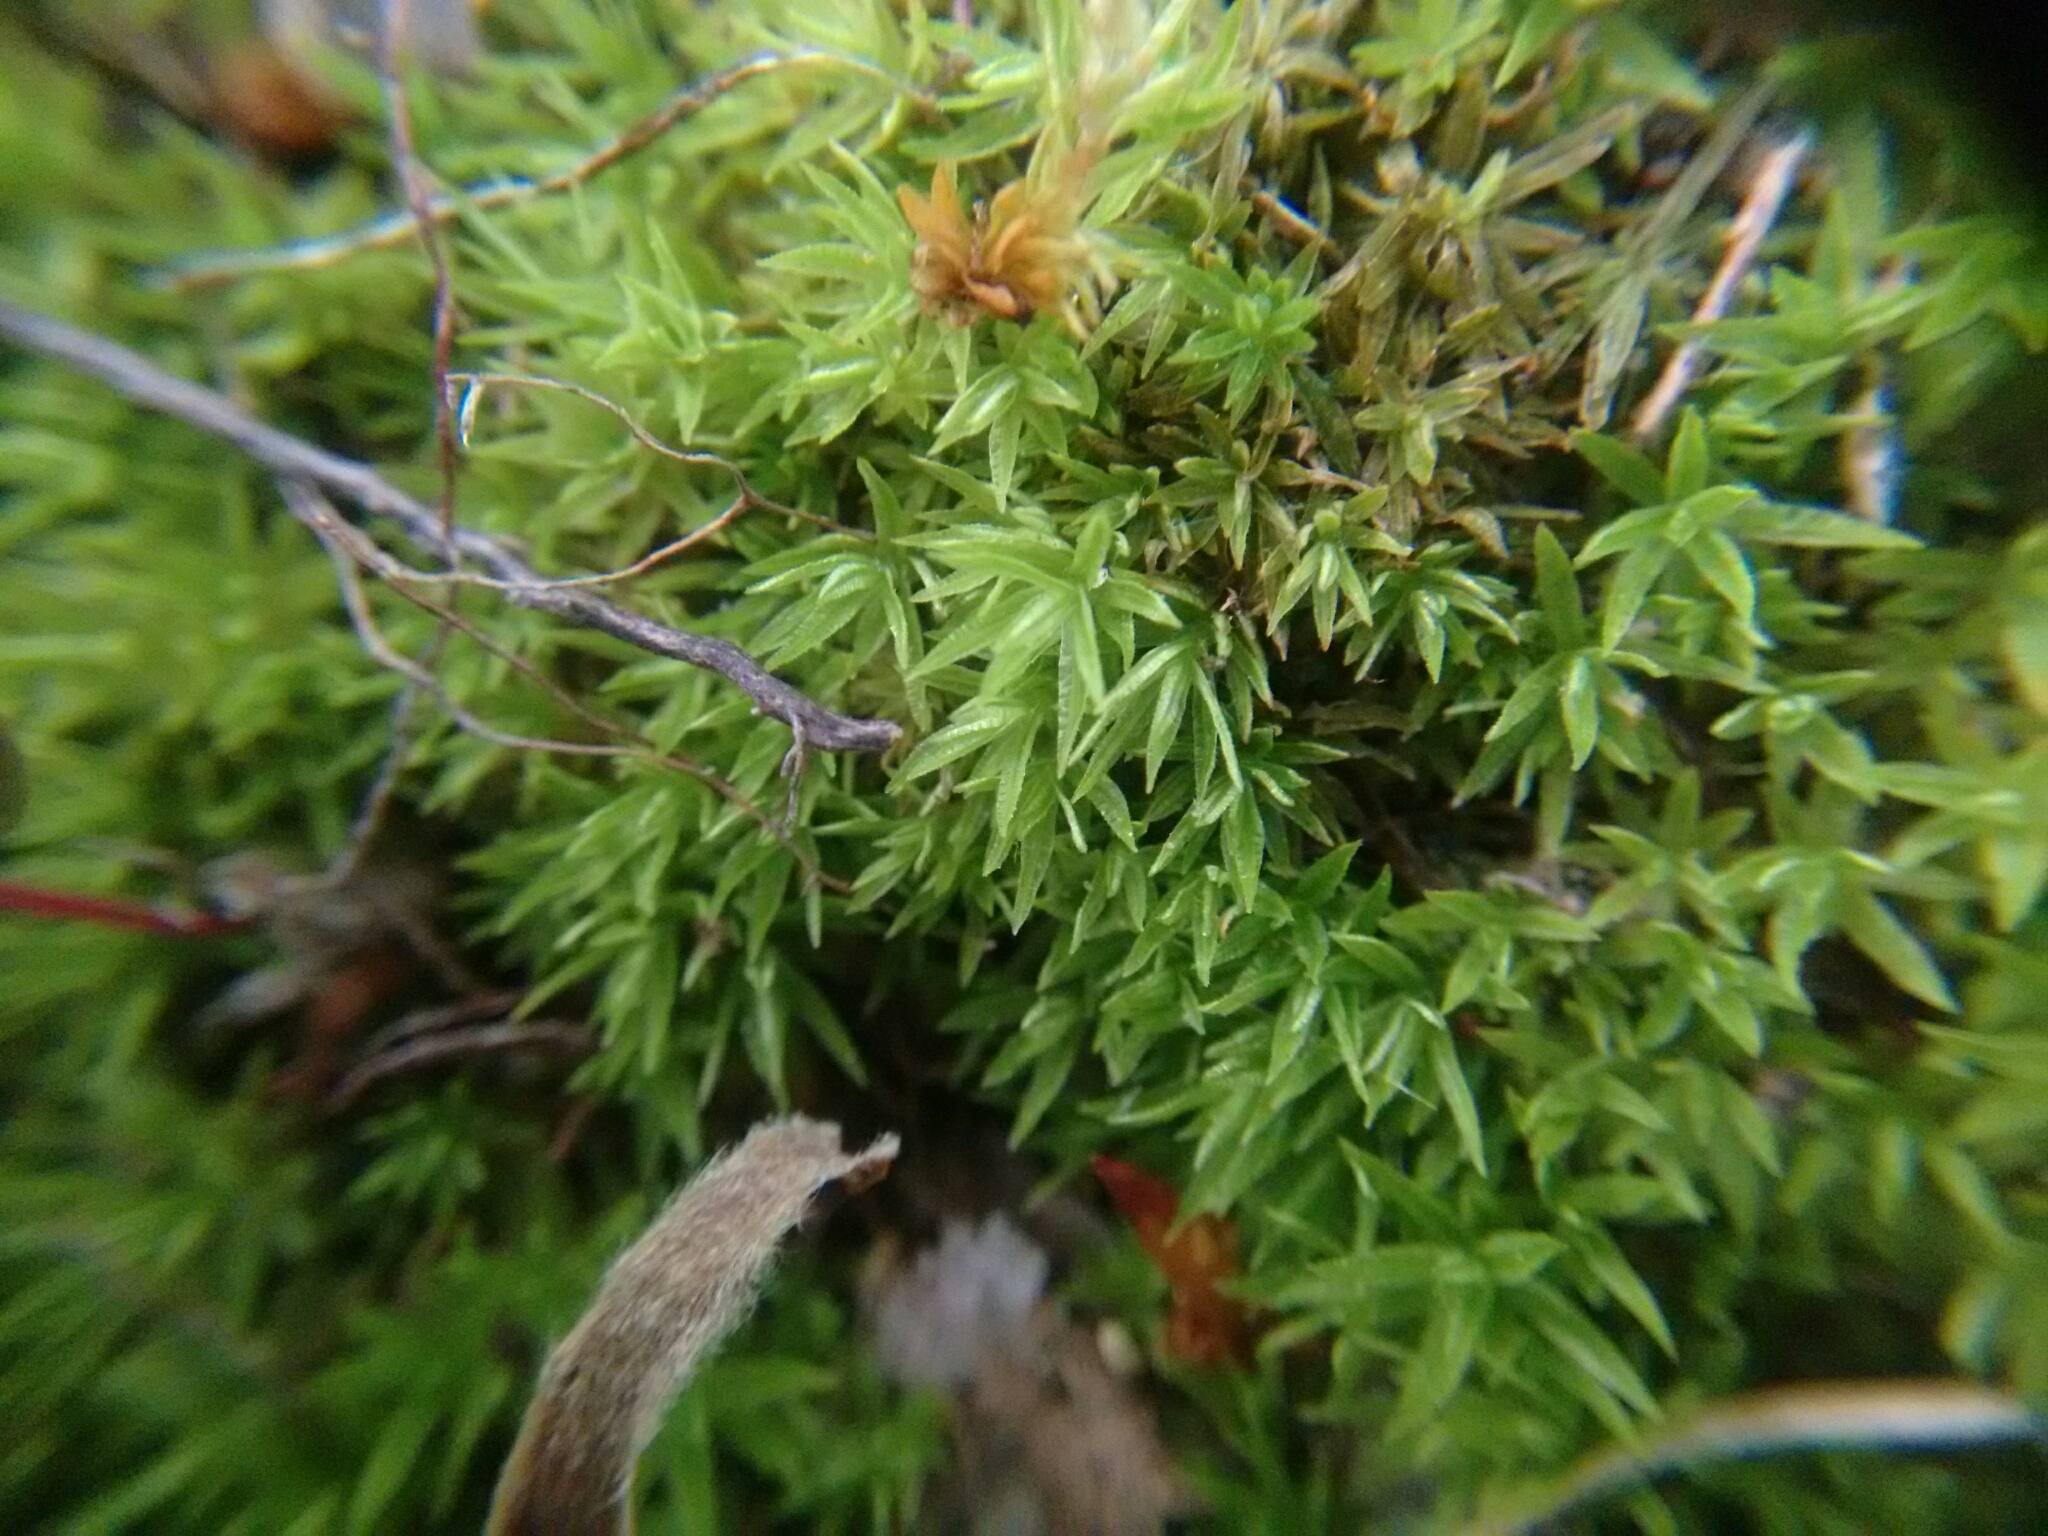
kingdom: Plantae
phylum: Bryophyta
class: Polytrichopsida
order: Polytrichales
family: Polytrichaceae
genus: Atrichum
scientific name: Atrichum undulatum
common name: Common smoothcap
